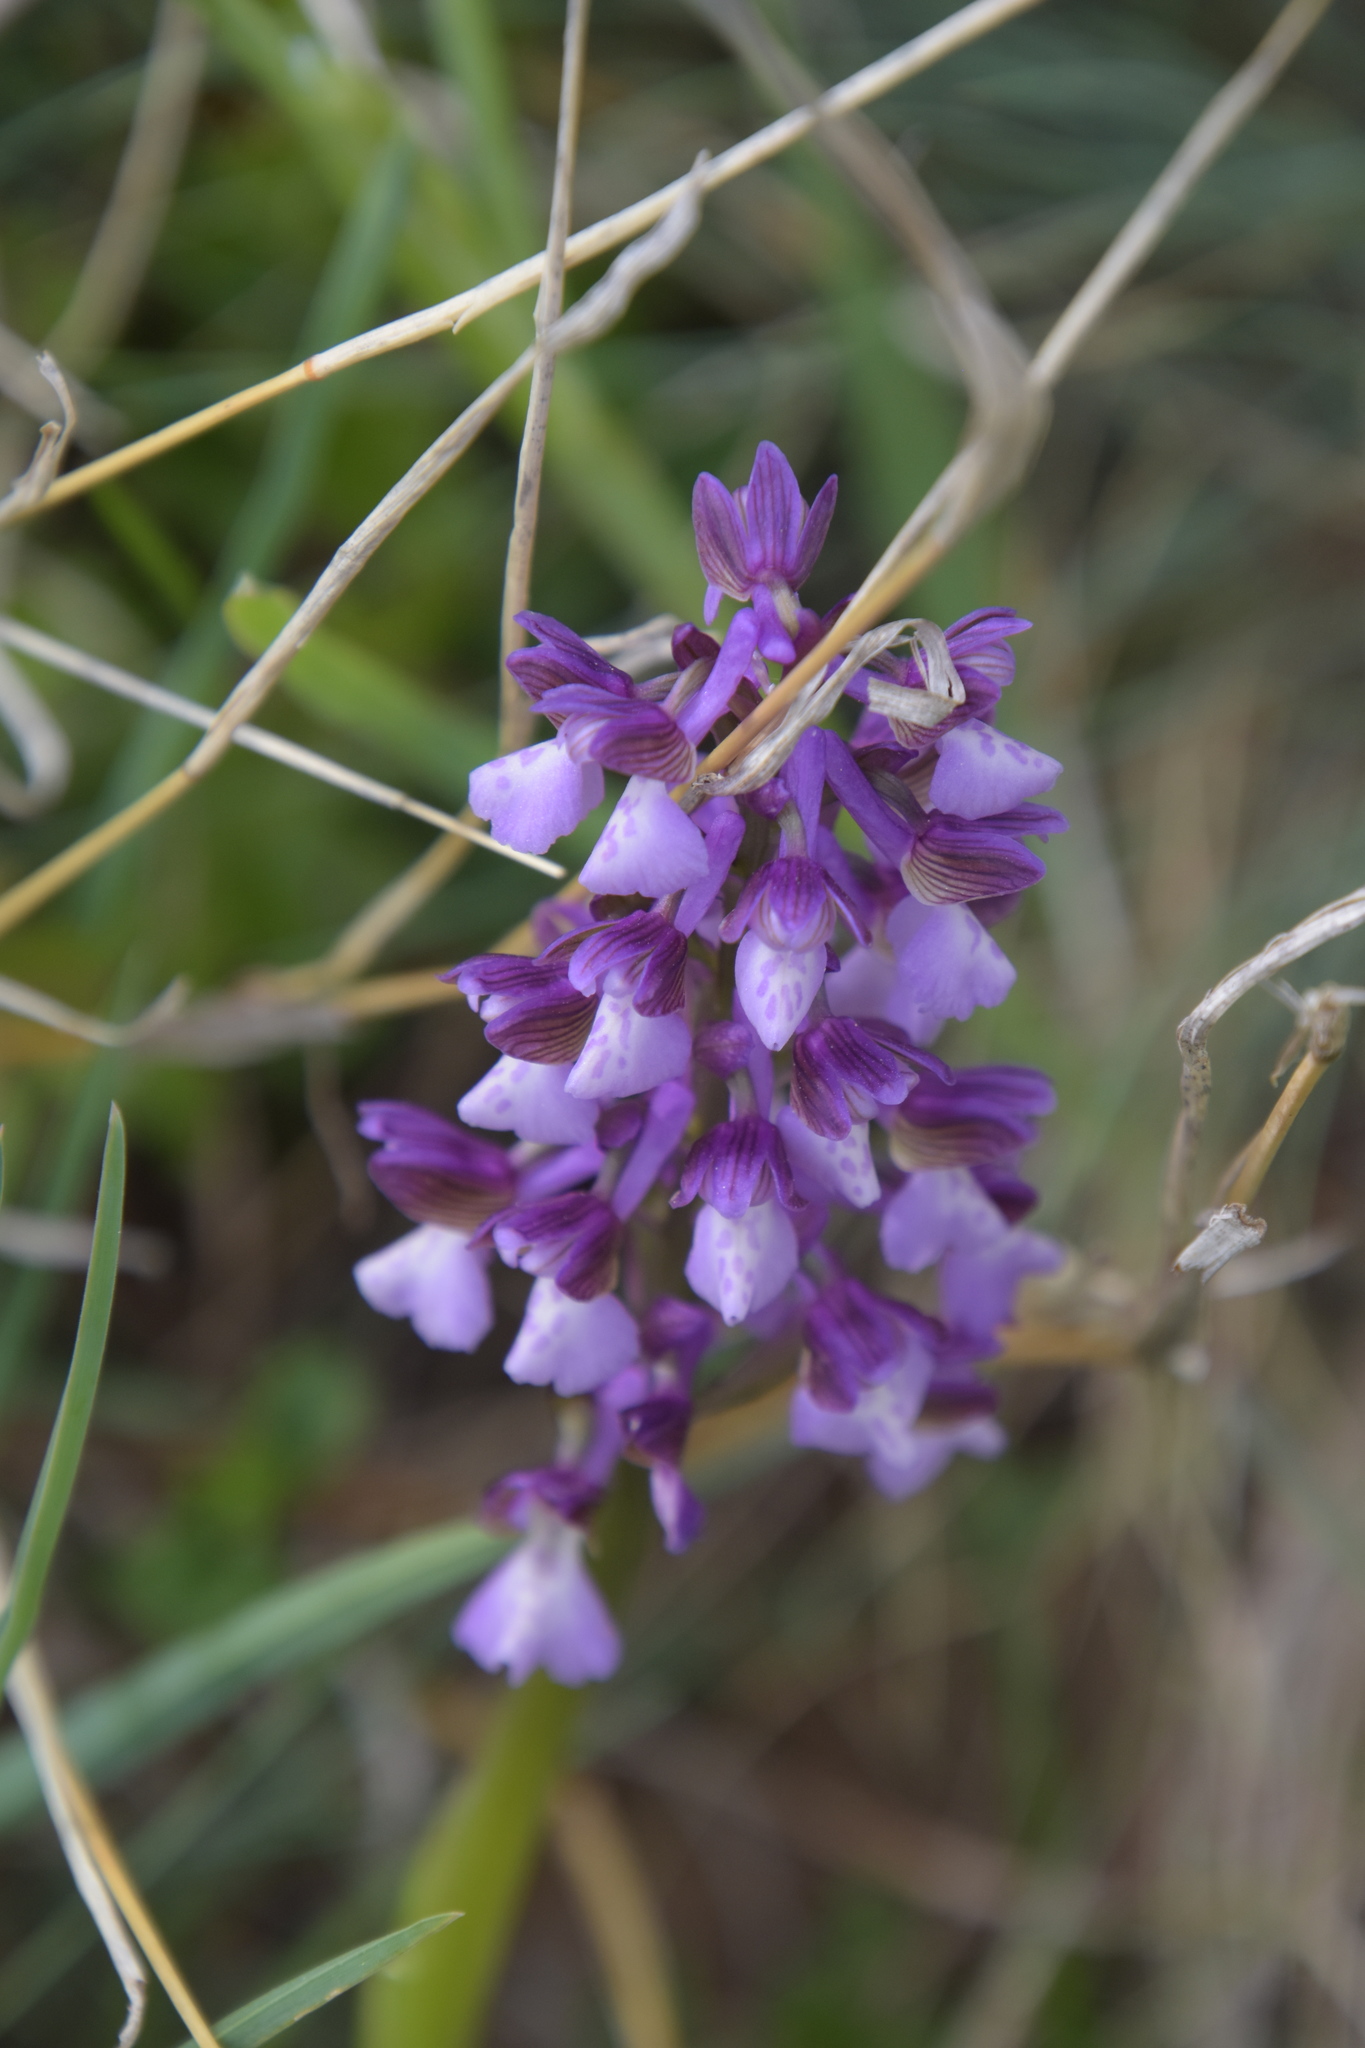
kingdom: Plantae
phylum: Tracheophyta
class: Liliopsida
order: Asparagales
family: Orchidaceae
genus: Anacamptis
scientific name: Anacamptis morio
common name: Green-winged orchid
